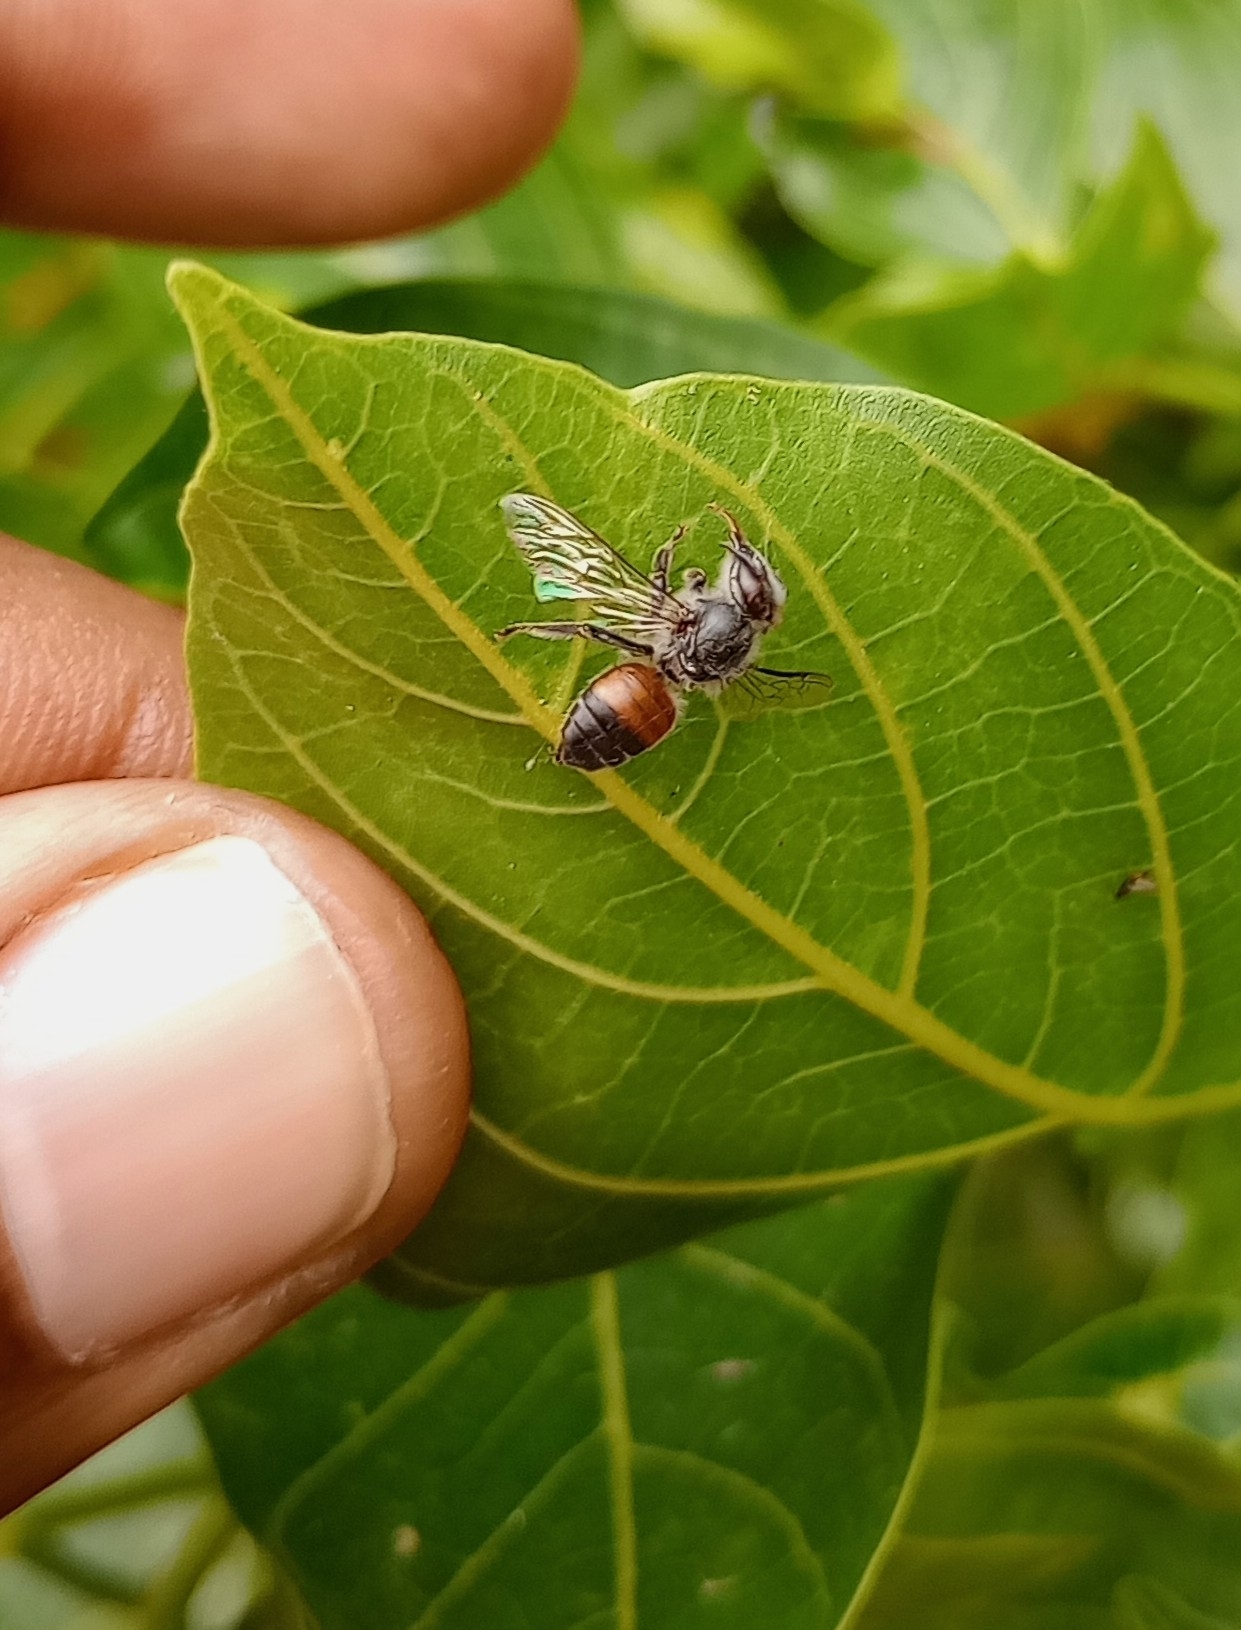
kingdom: Animalia
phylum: Arthropoda
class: Insecta
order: Hymenoptera
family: Apidae
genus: Apis
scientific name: Apis florea
